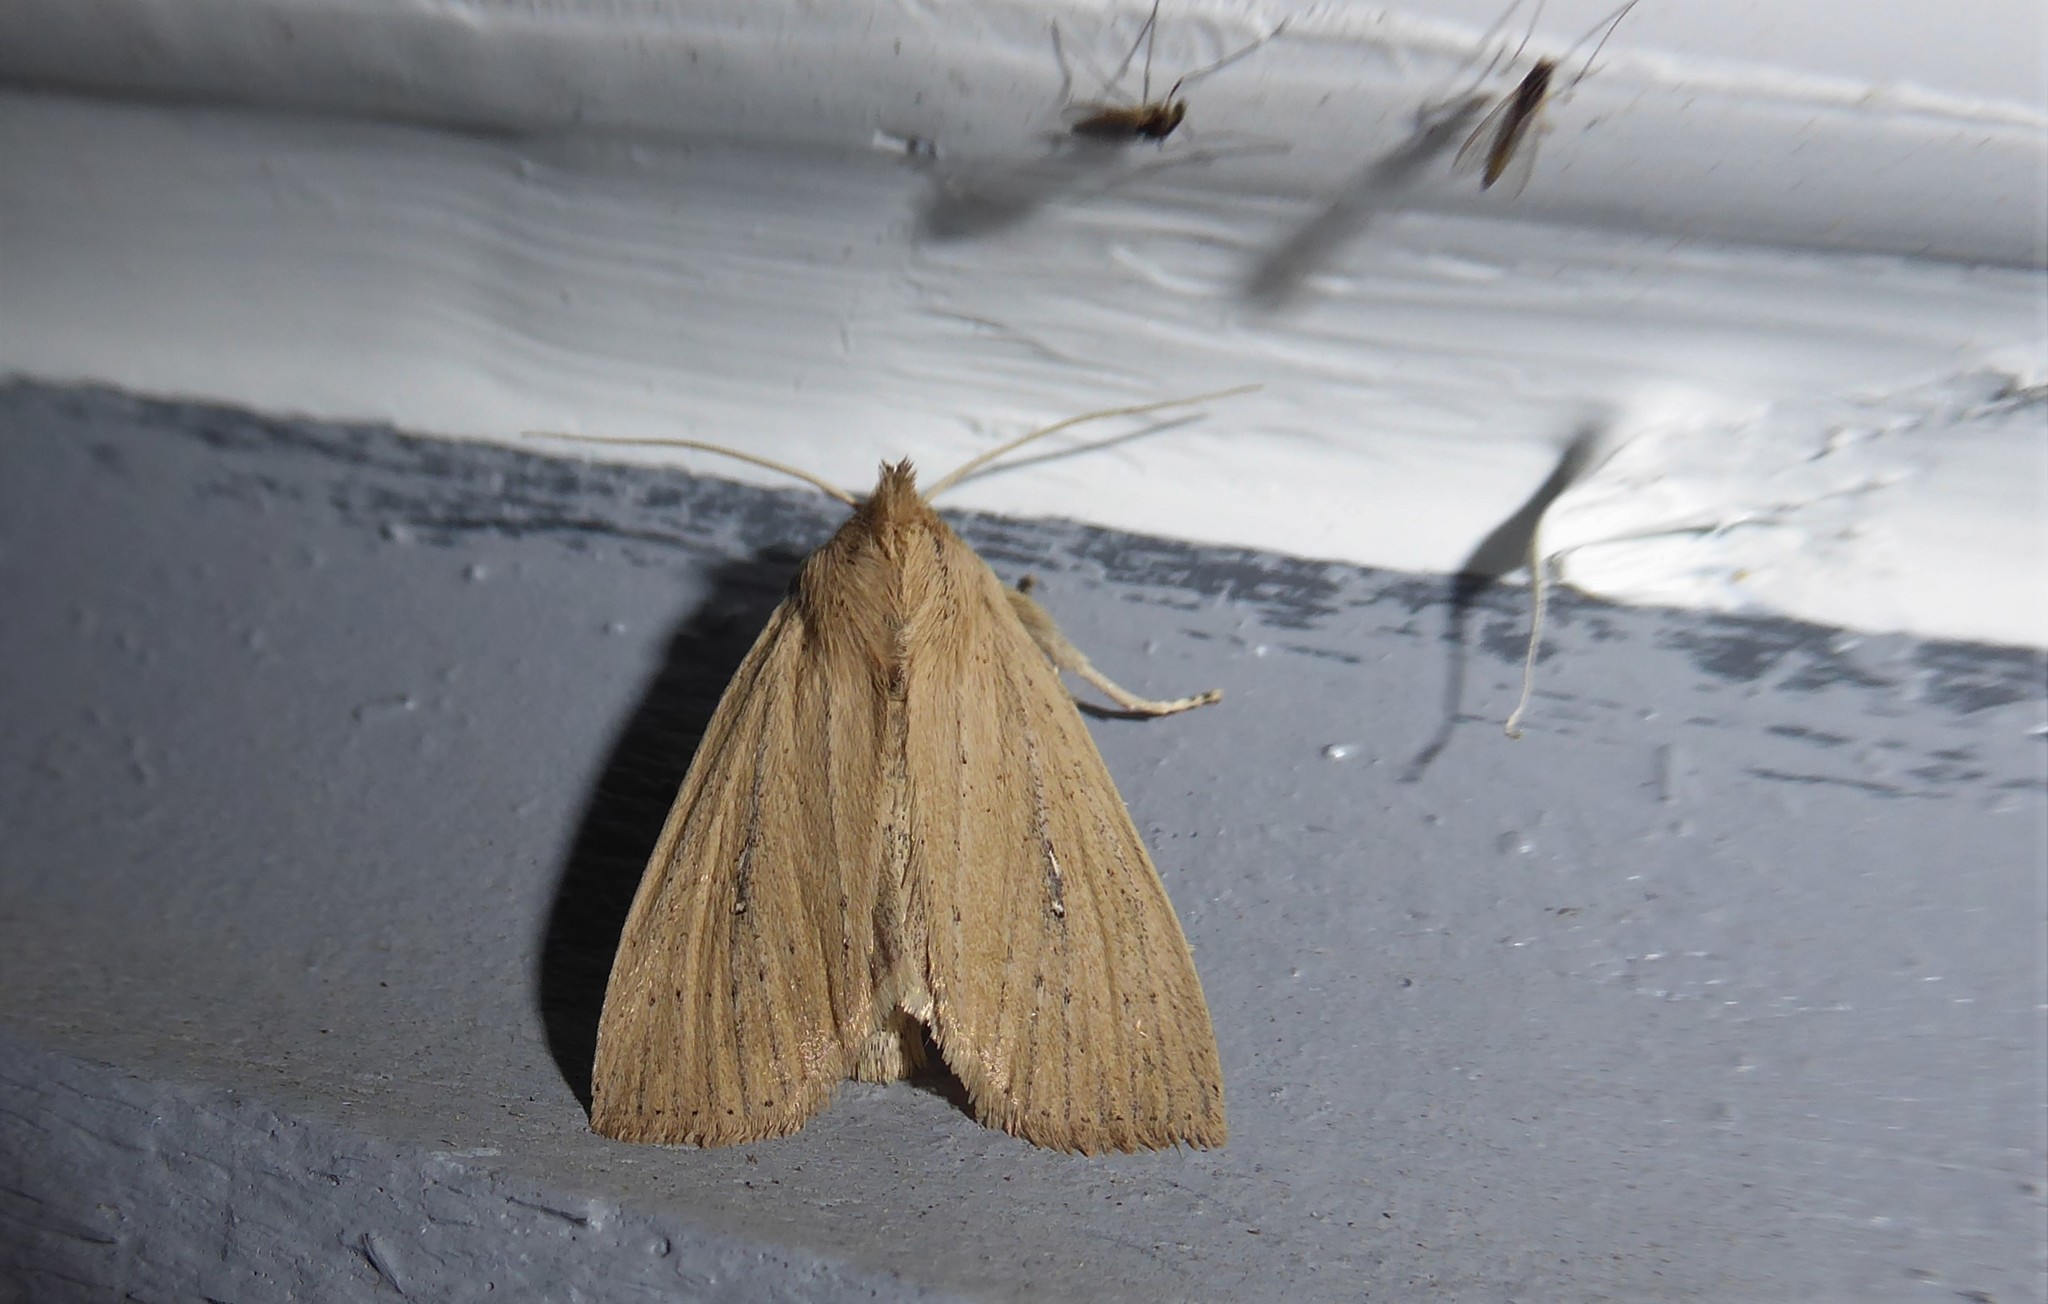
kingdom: Animalia
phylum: Arthropoda
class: Insecta
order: Lepidoptera
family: Noctuidae
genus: Ichneutica
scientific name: Ichneutica
